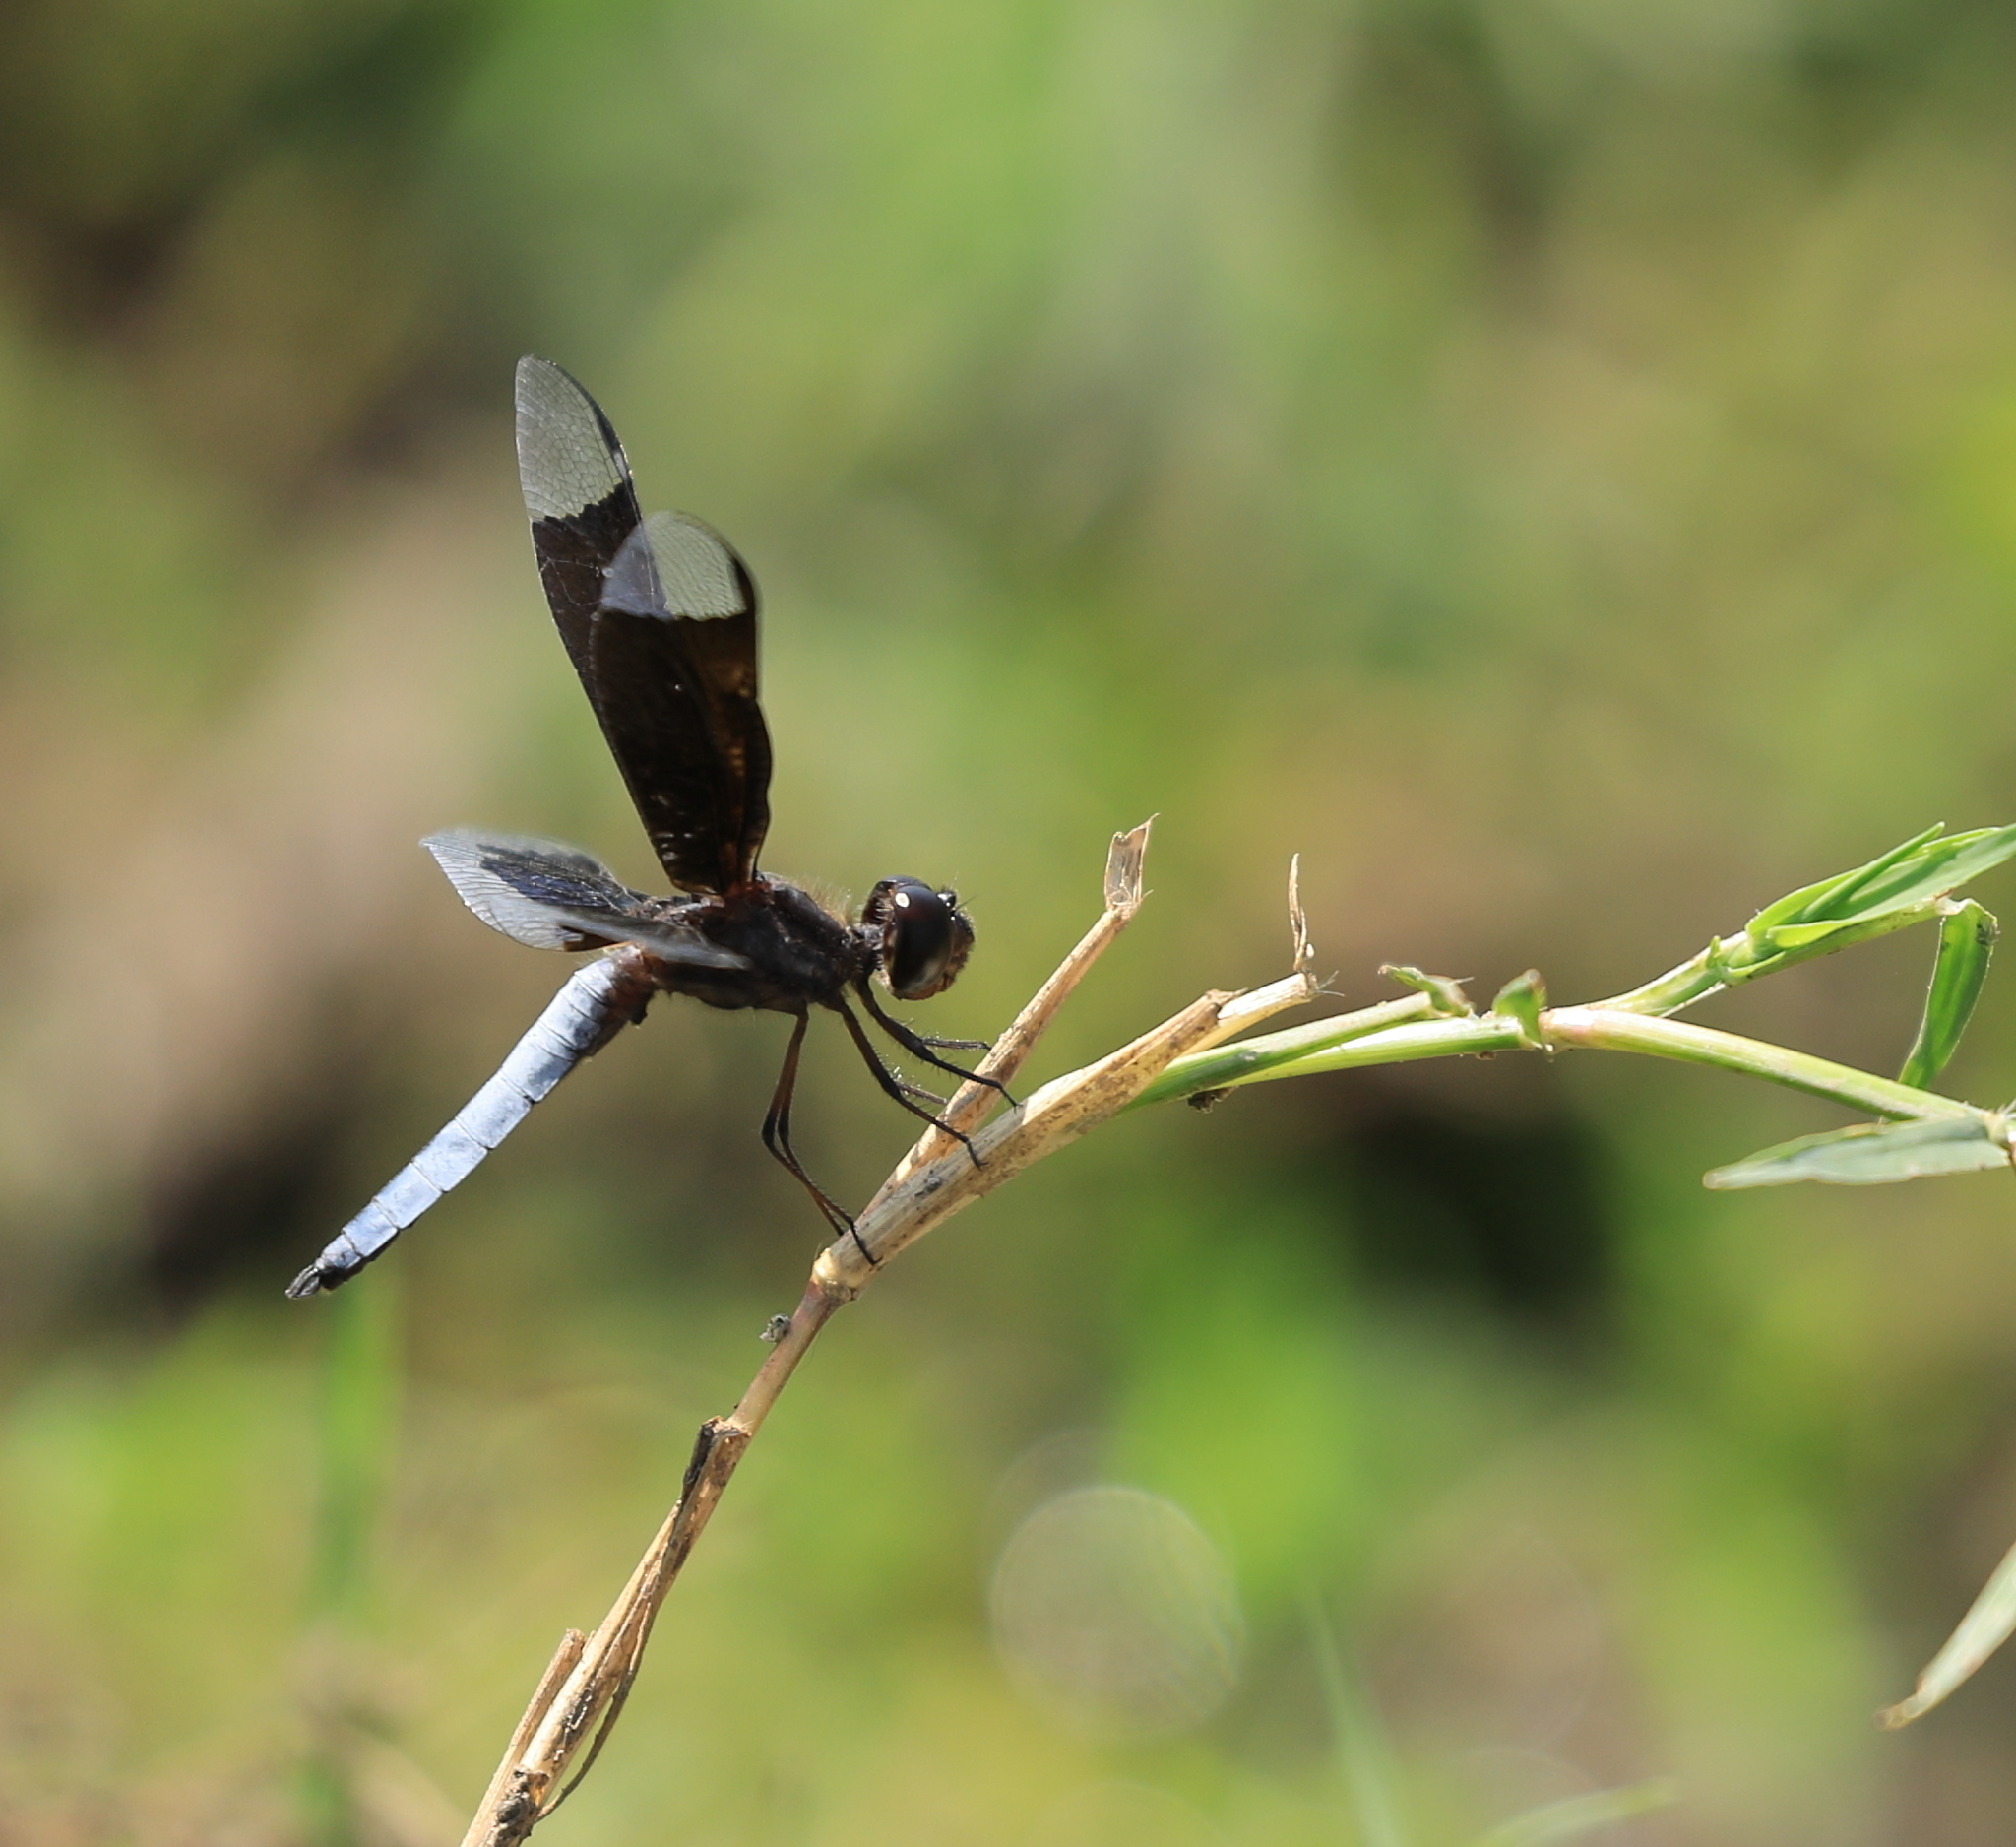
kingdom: Animalia
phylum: Arthropoda
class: Insecta
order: Odonata
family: Libellulidae
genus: Palpopleura
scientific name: Palpopleura lucia
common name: Lucia widow
